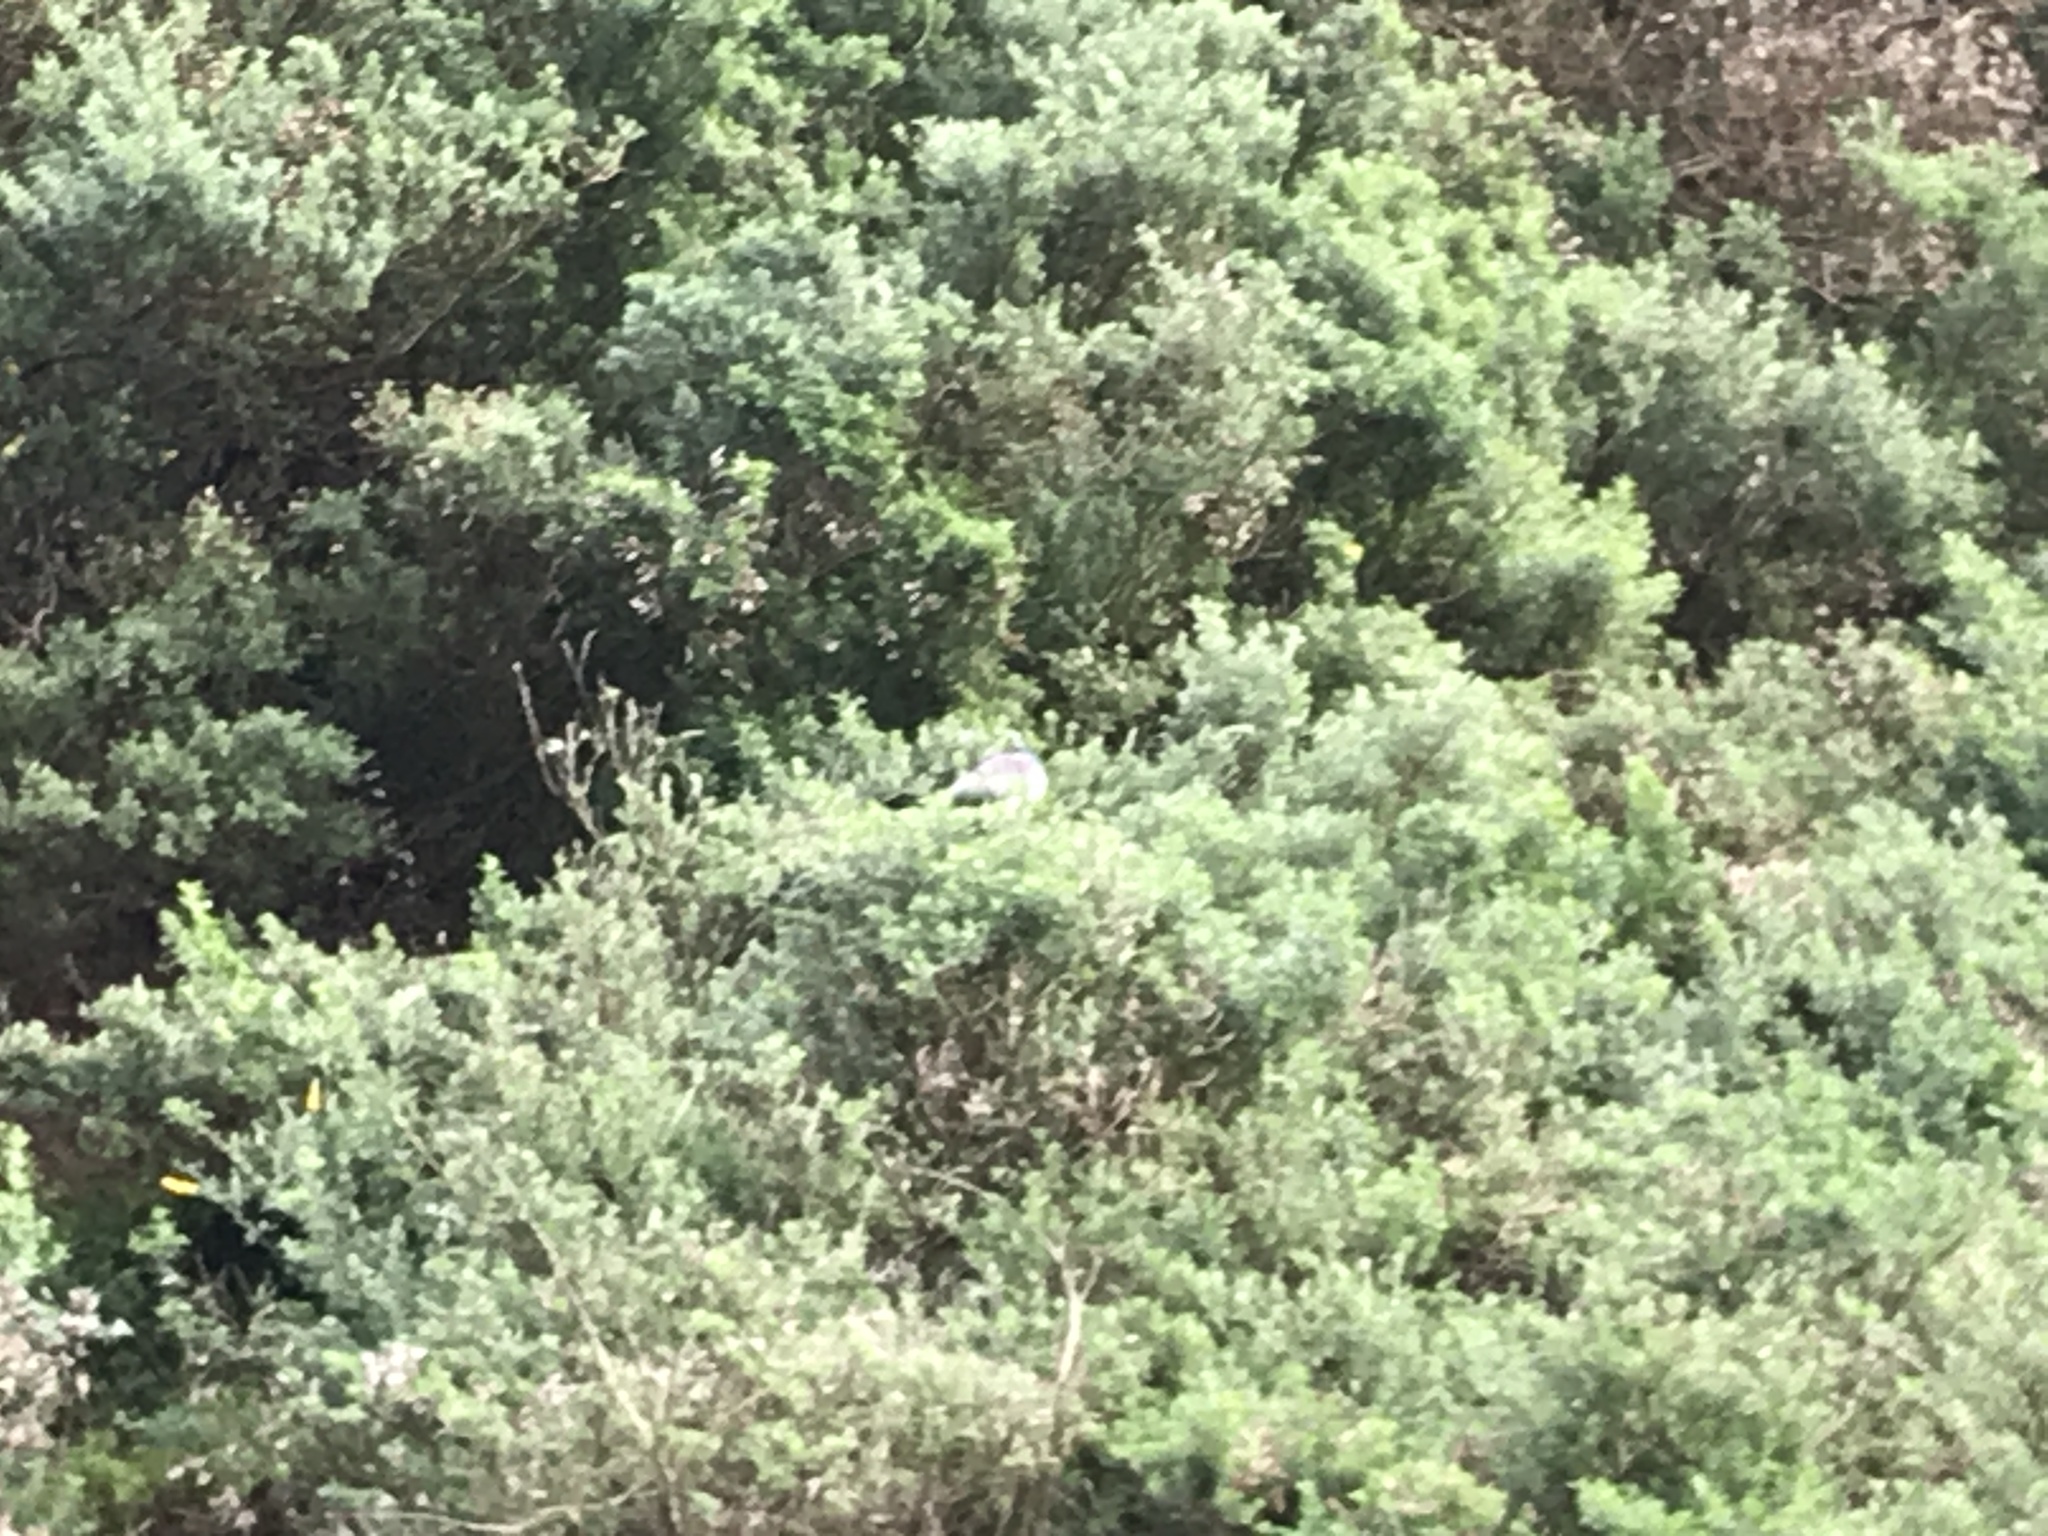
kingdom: Animalia
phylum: Chordata
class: Aves
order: Columbiformes
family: Columbidae
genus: Hemiphaga
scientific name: Hemiphaga novaeseelandiae
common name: New zealand pigeon
